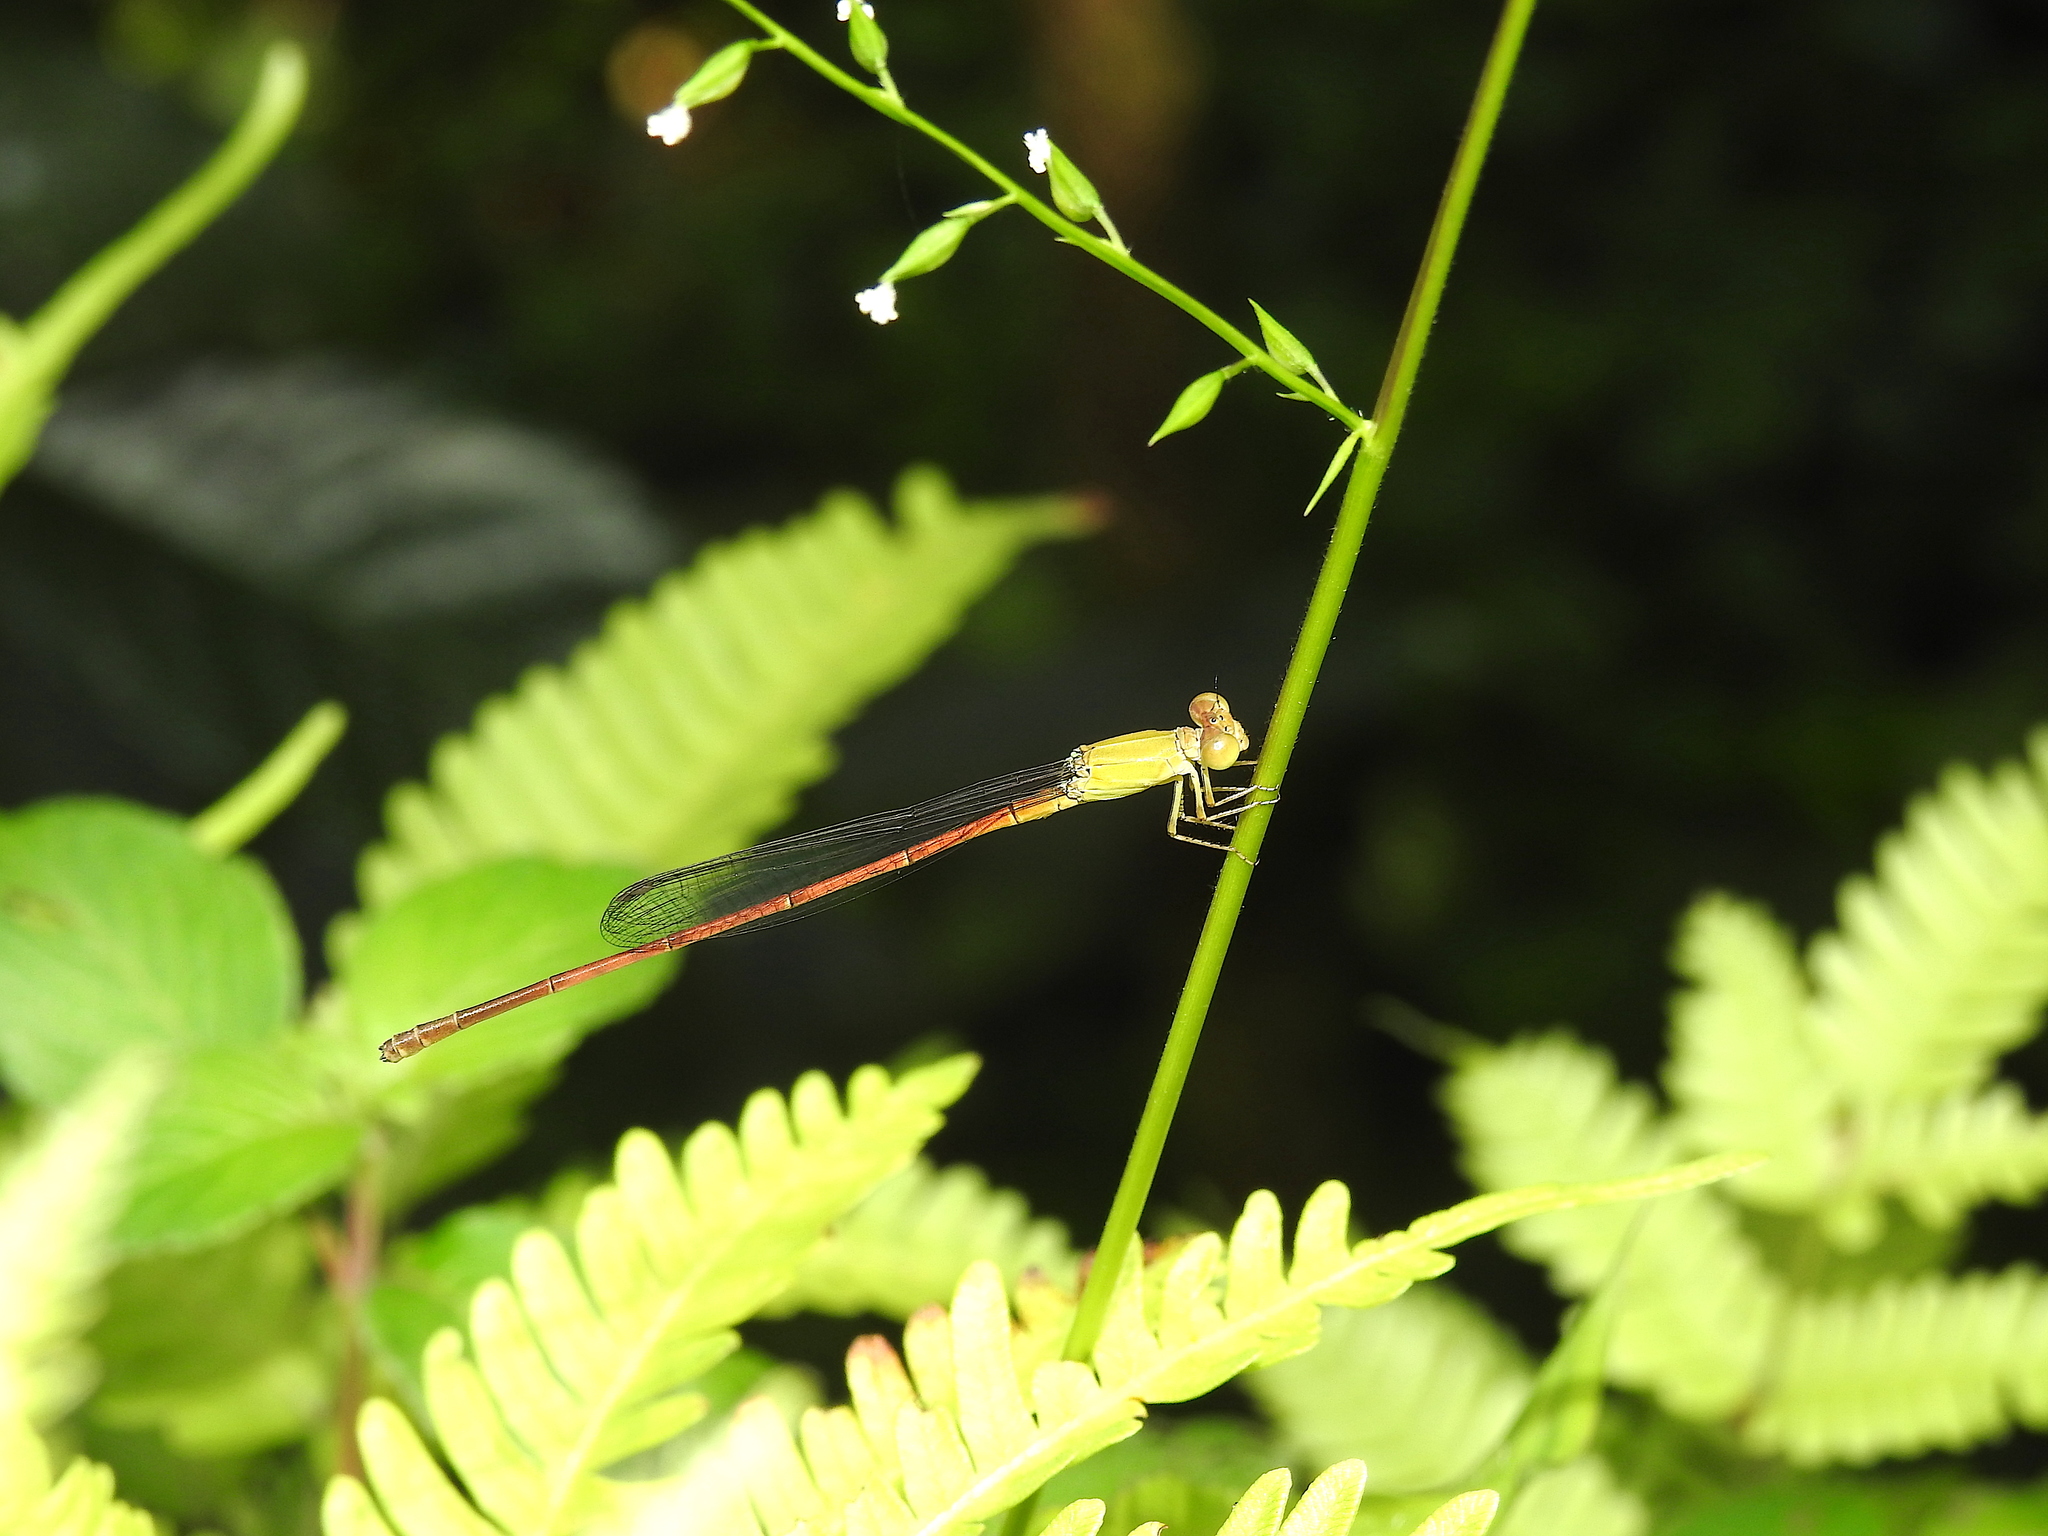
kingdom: Animalia
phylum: Arthropoda
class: Insecta
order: Odonata
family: Coenagrionidae
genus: Ceriagrion
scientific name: Ceriagrion olivaceum
